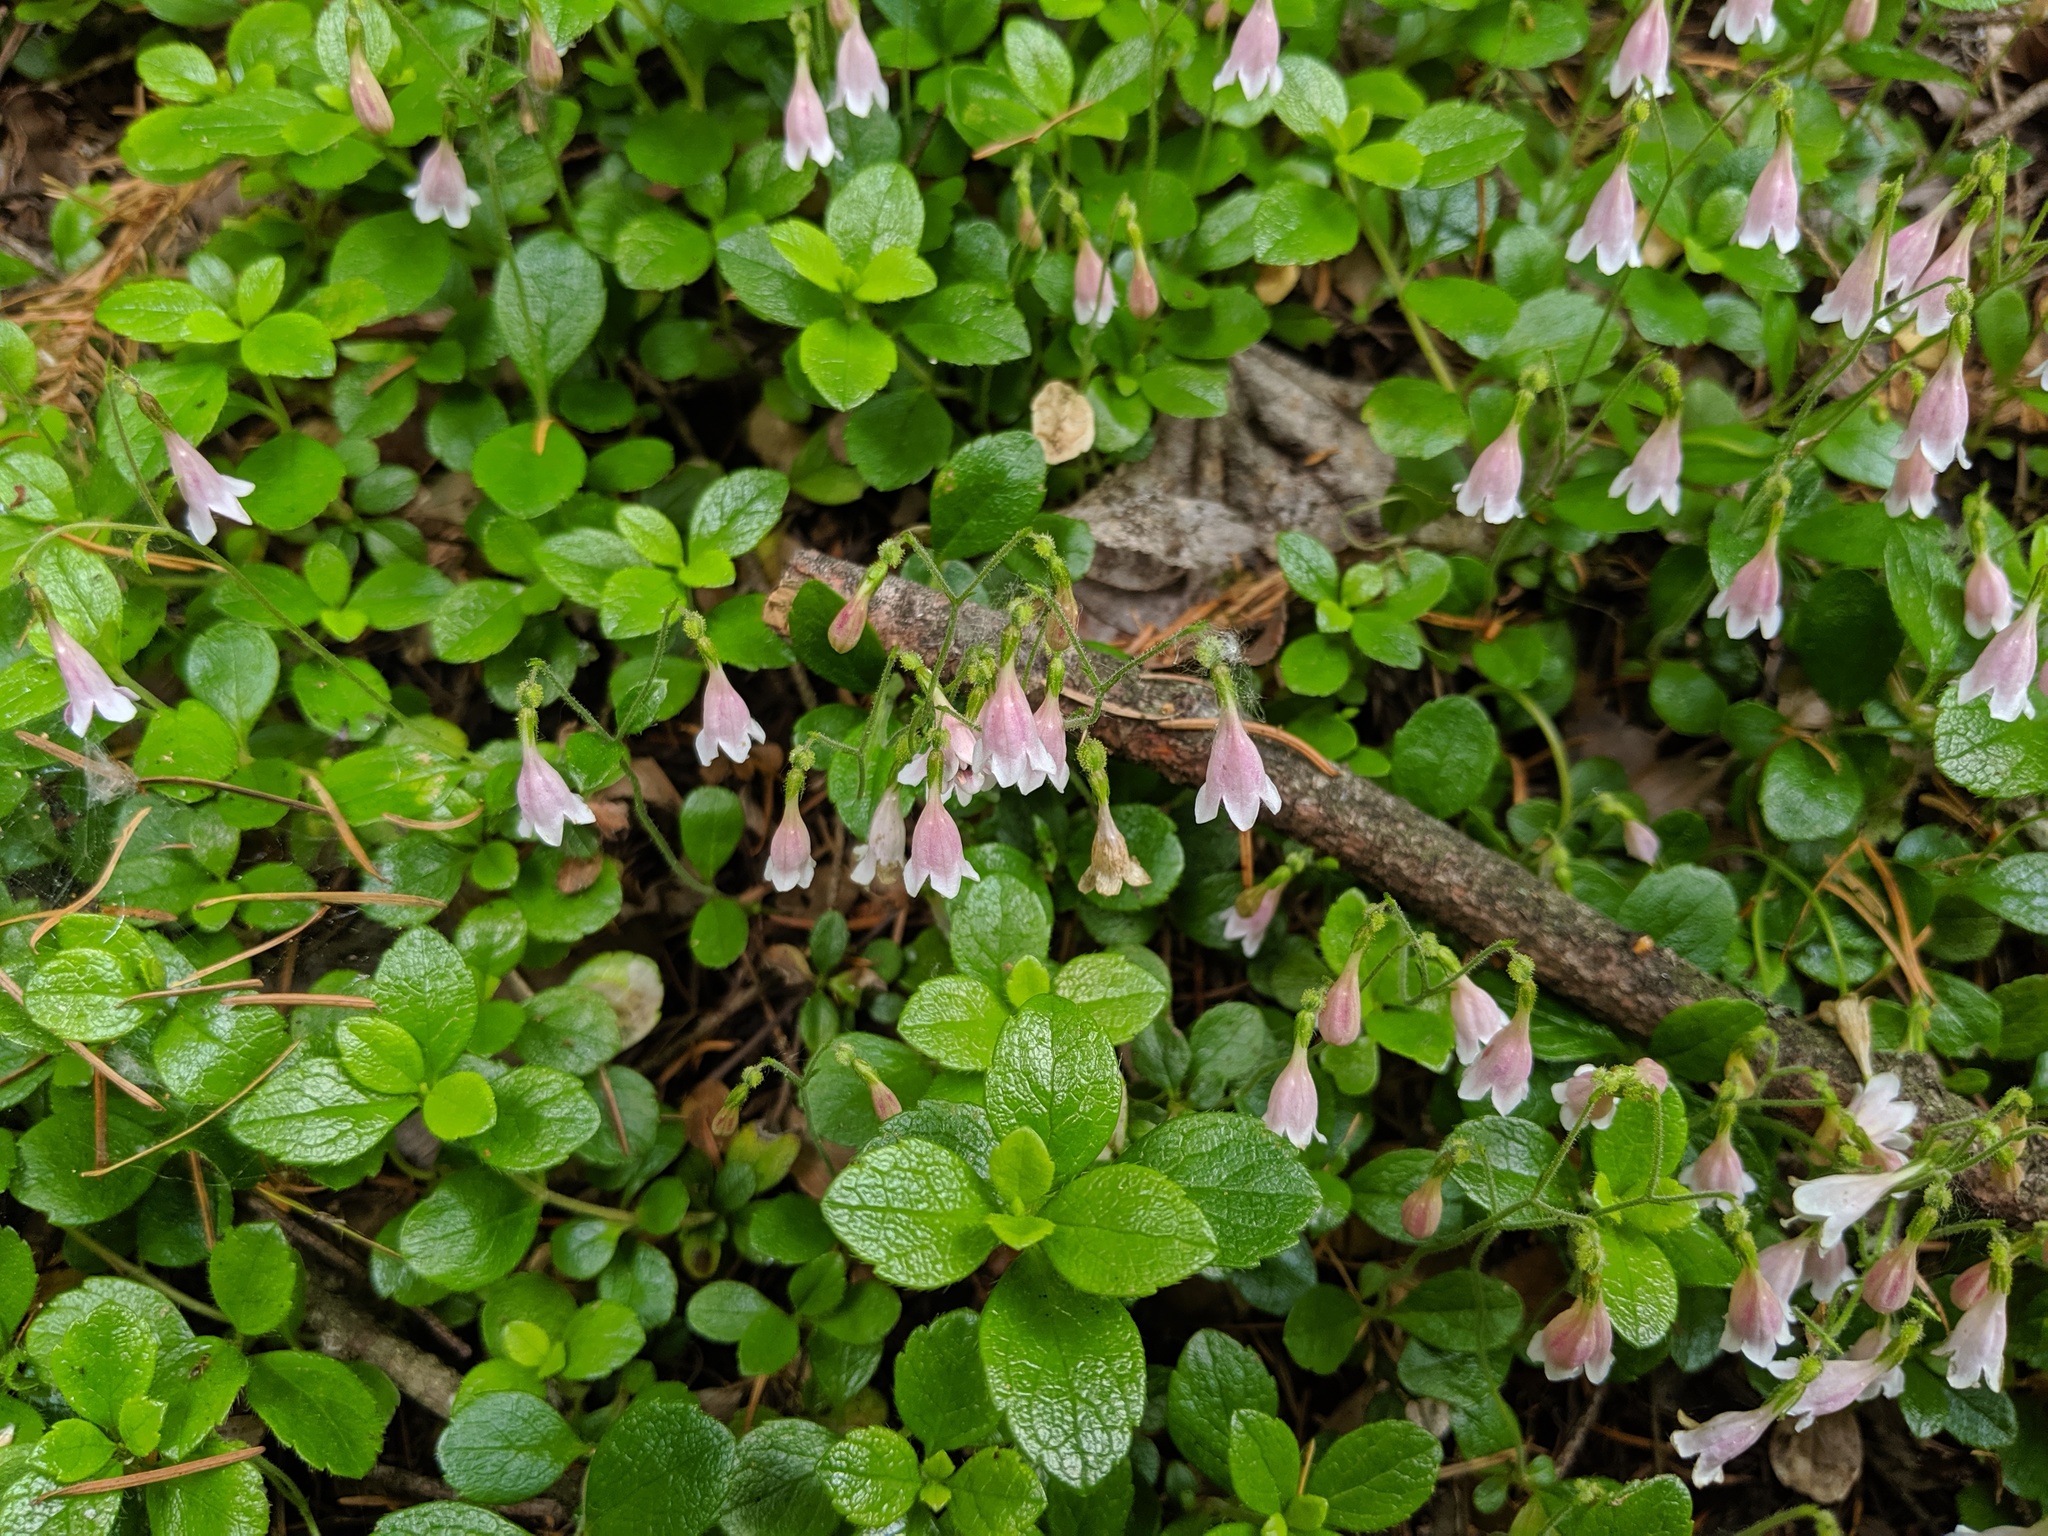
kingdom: Plantae
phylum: Tracheophyta
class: Magnoliopsida
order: Dipsacales
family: Caprifoliaceae
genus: Linnaea
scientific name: Linnaea borealis
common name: Twinflower
